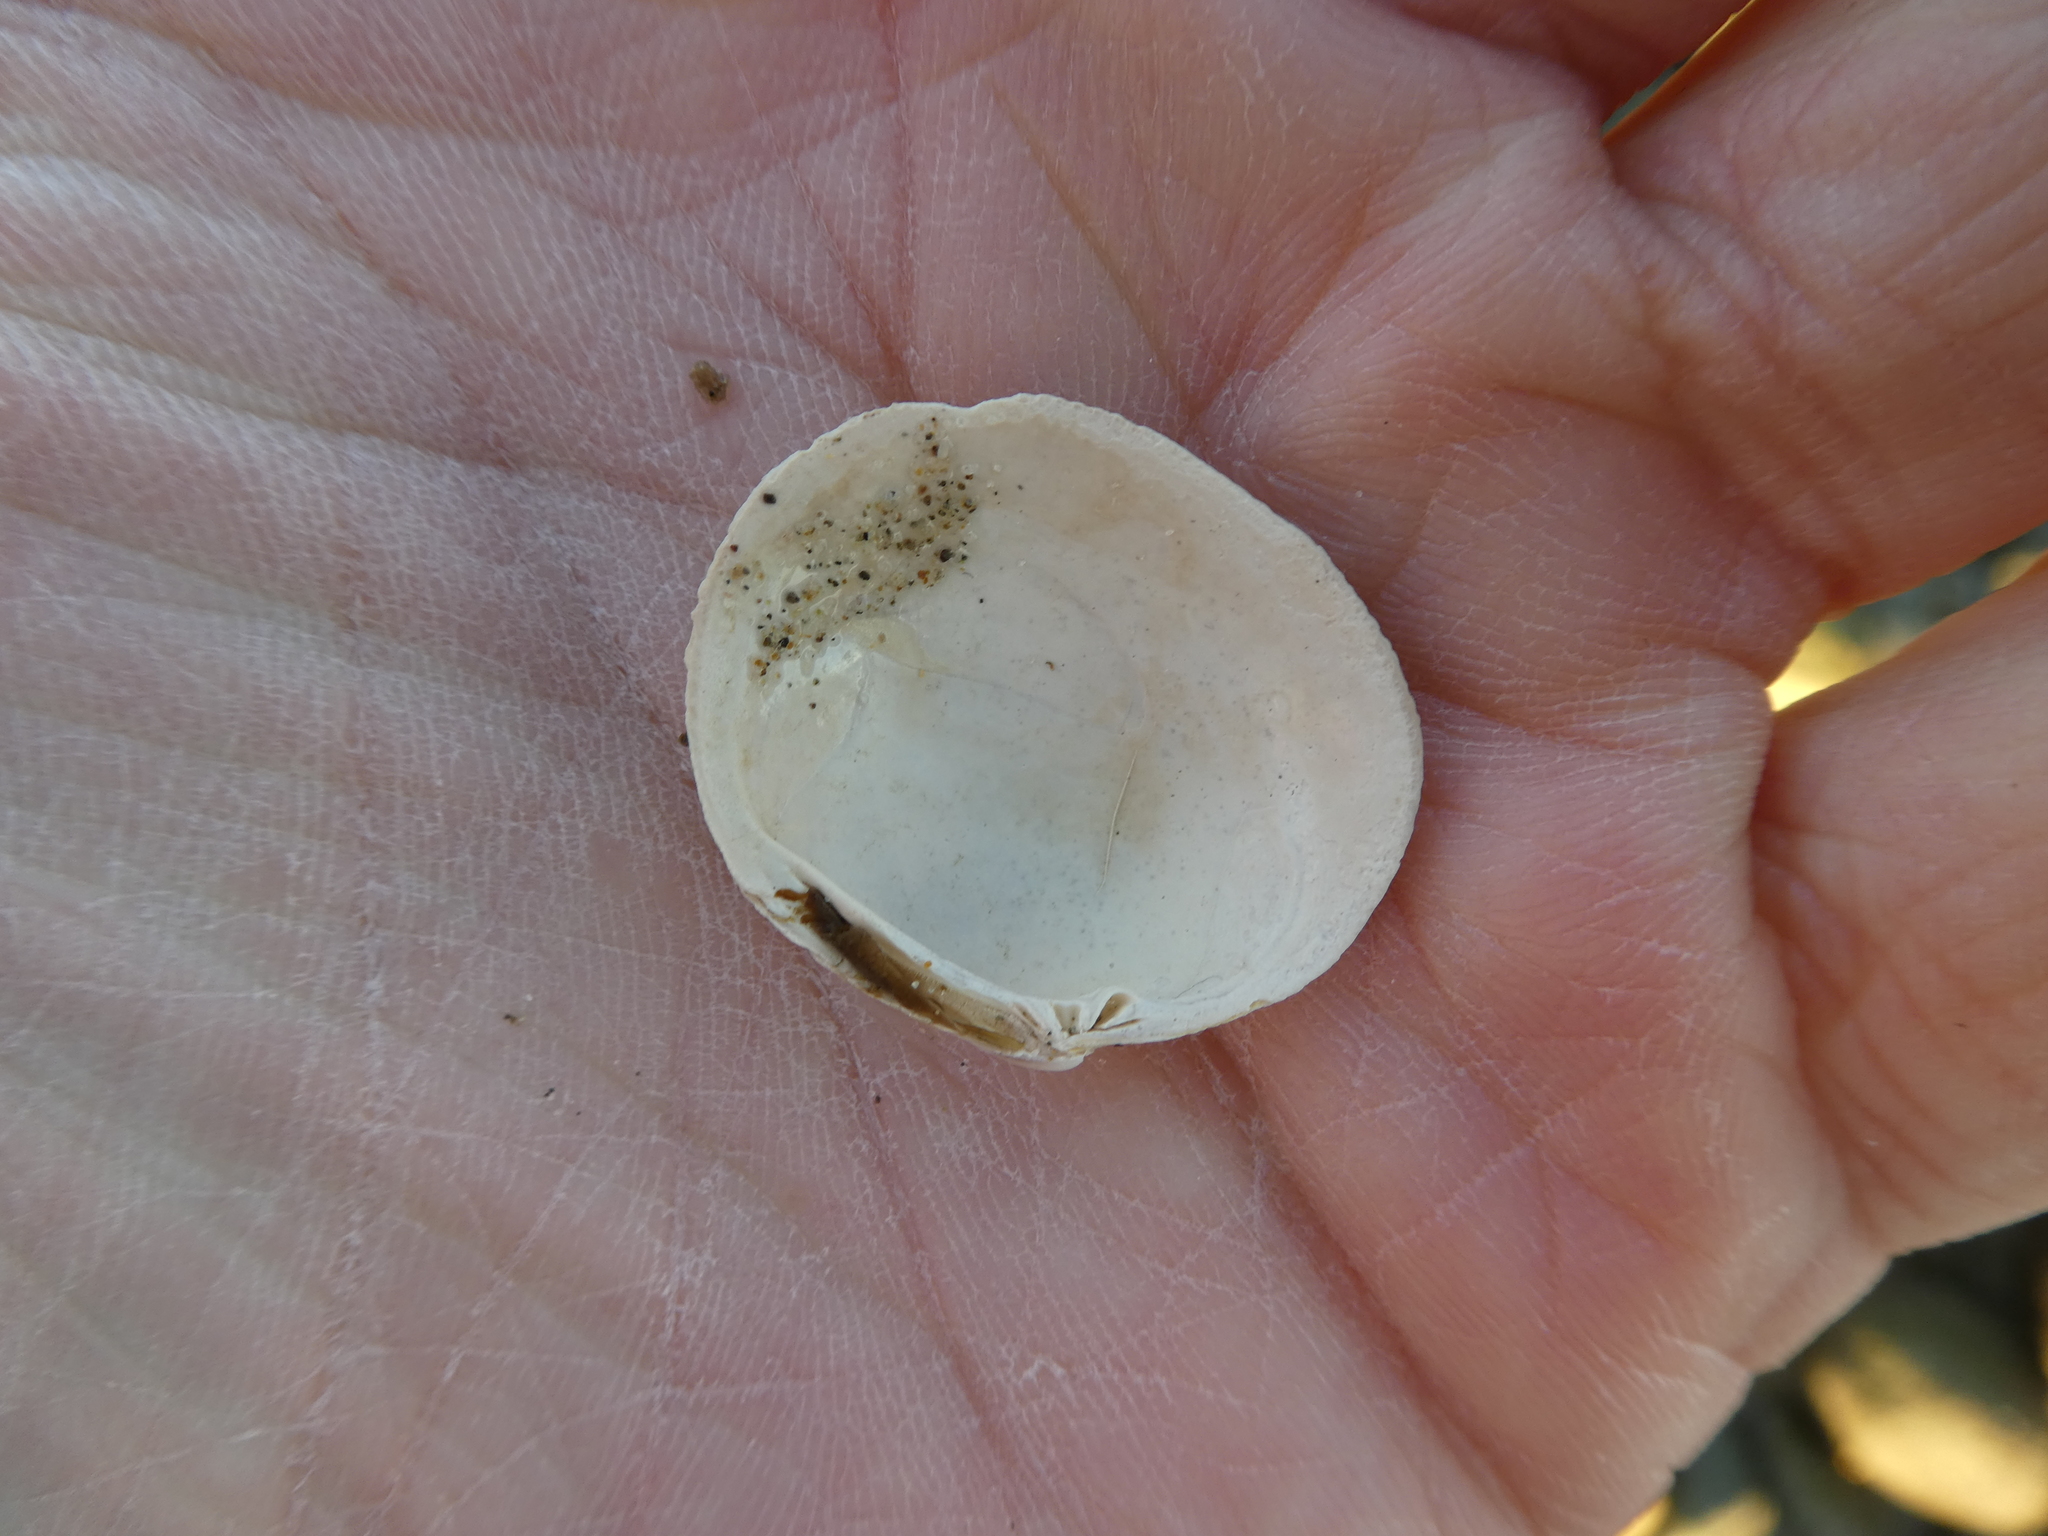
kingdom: Animalia
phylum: Mollusca
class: Bivalvia
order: Venerida
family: Veneridae
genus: Leukoma
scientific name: Leukoma staminea
